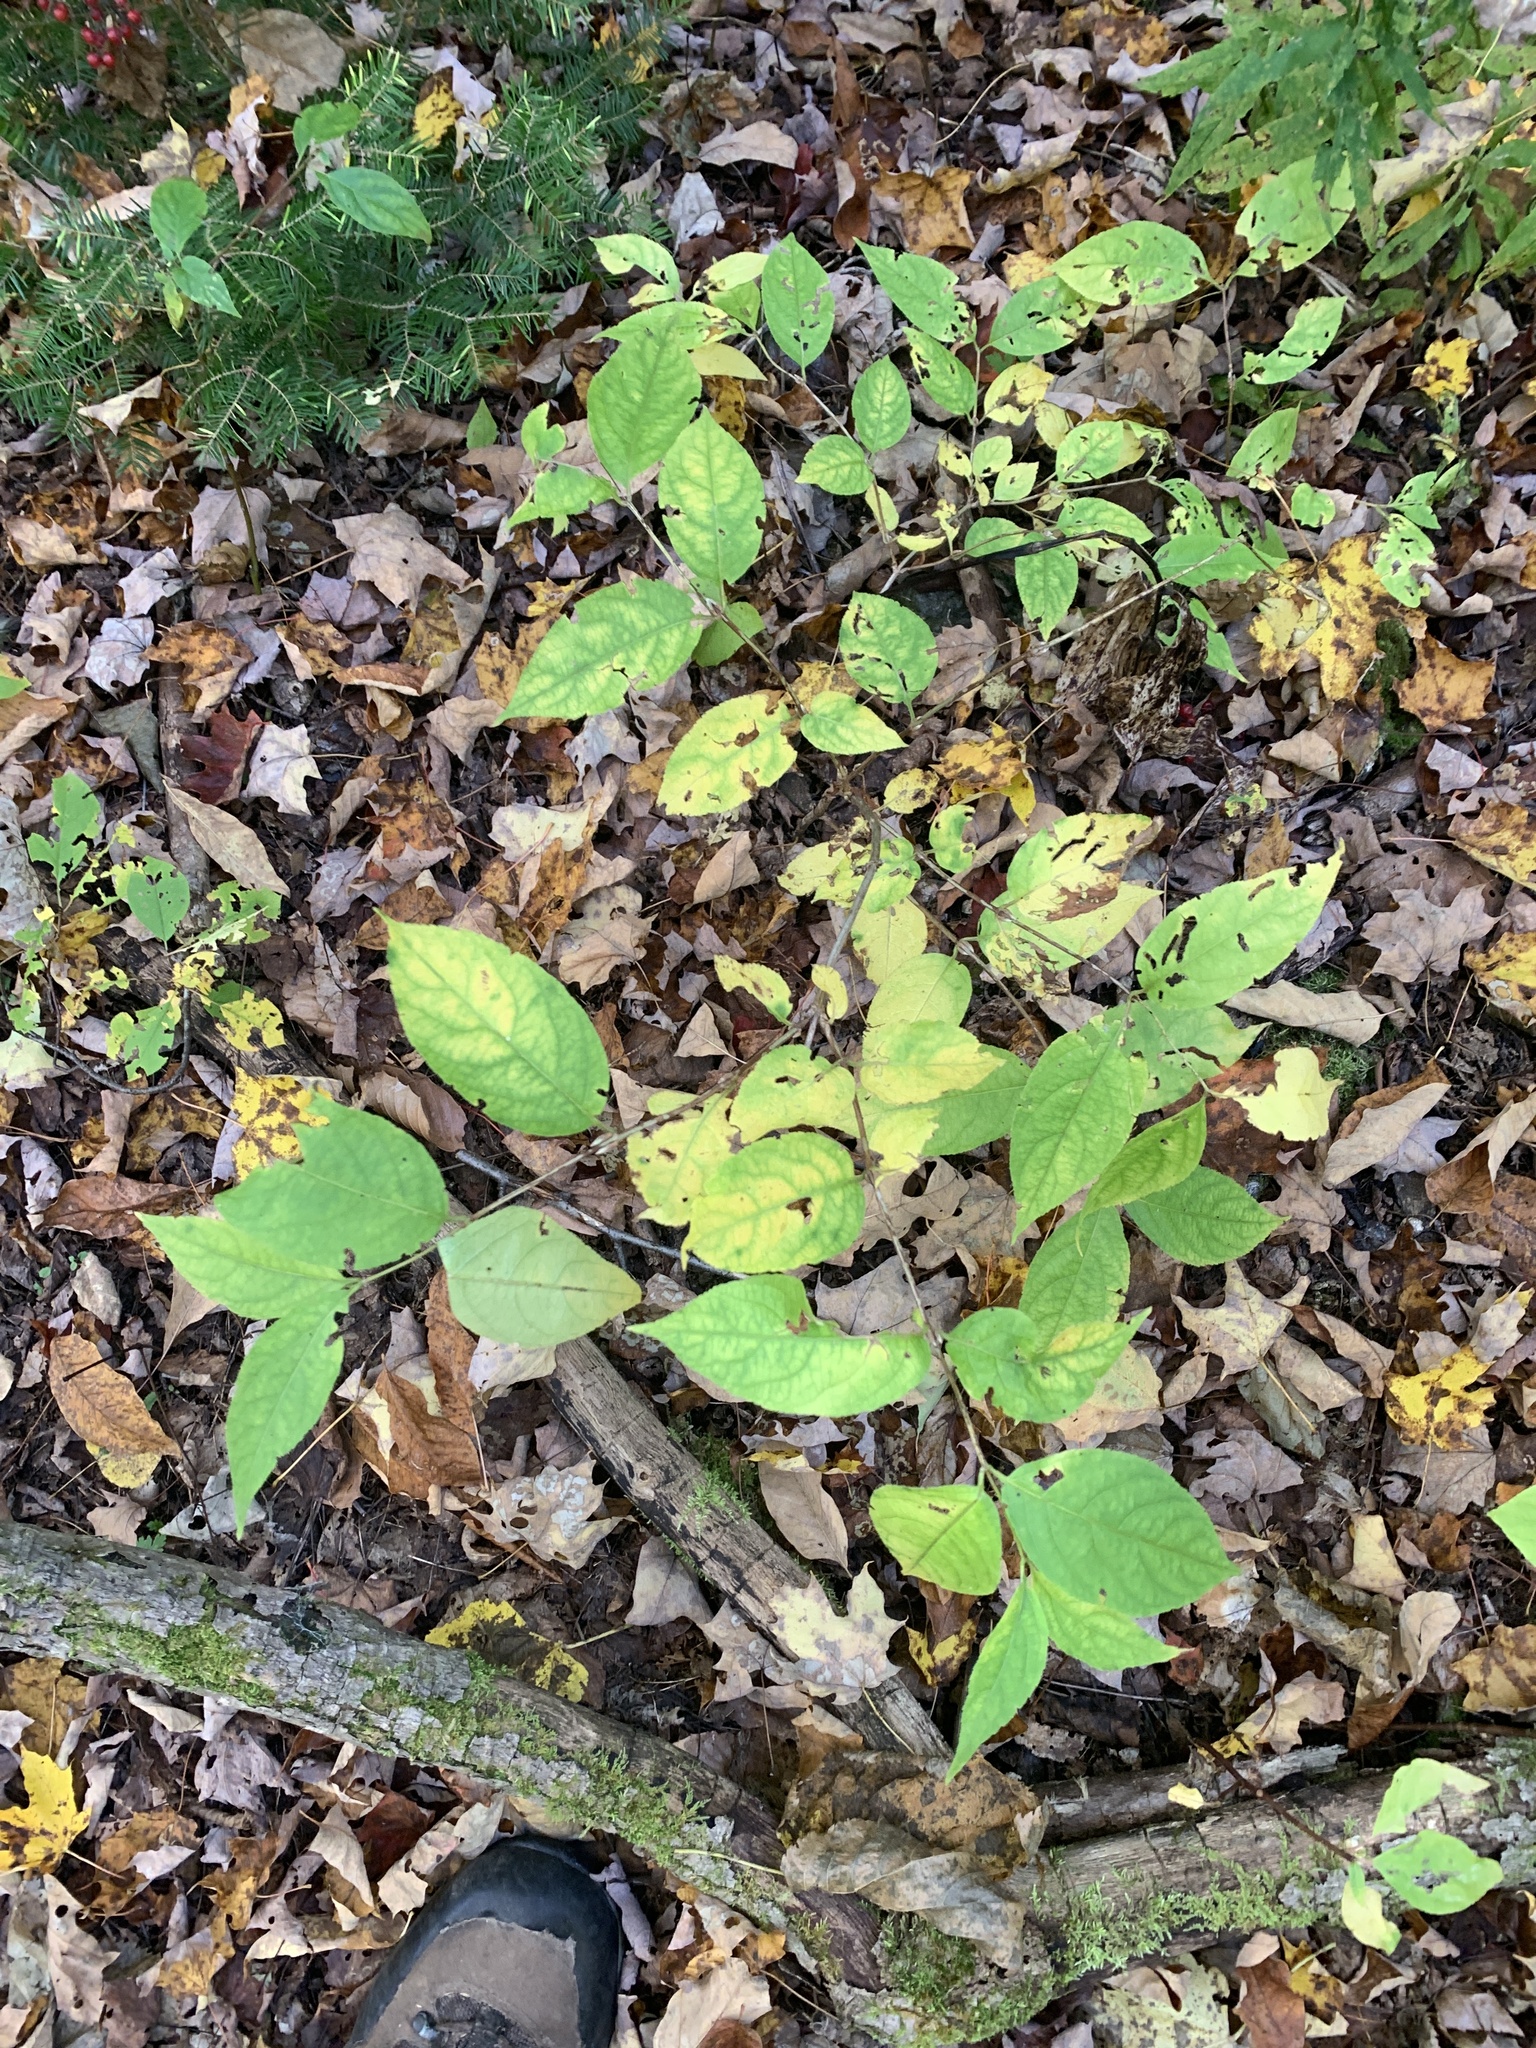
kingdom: Plantae
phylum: Tracheophyta
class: Magnoliopsida
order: Dipsacales
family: Caprifoliaceae
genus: Diervilla
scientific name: Diervilla lonicera
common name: Bush-honeysuckle
